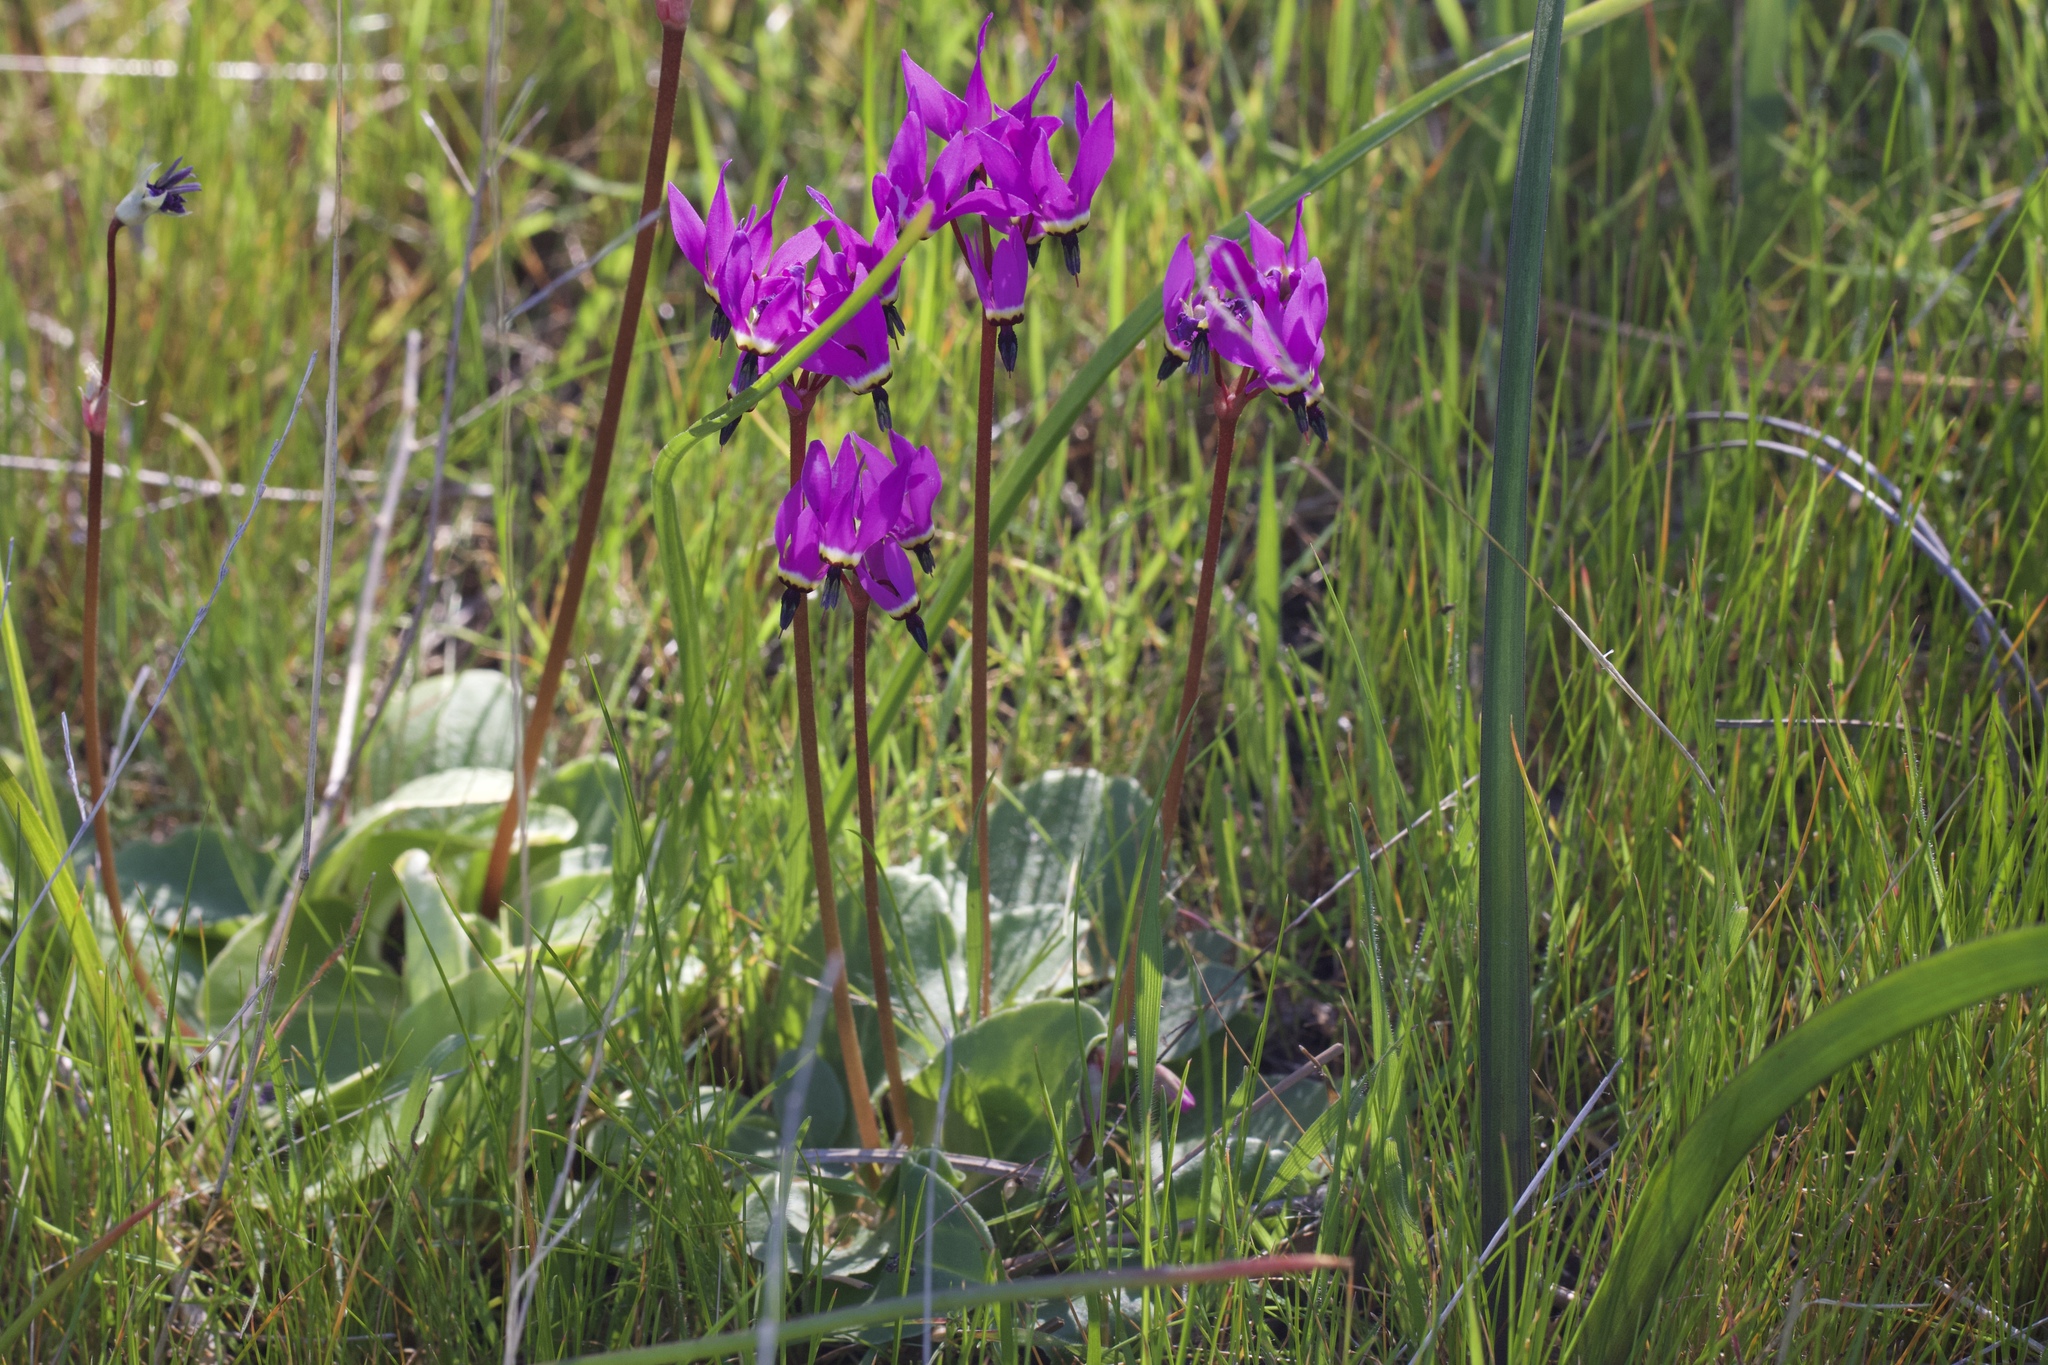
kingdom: Plantae
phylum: Tracheophyta
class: Magnoliopsida
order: Ericales
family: Primulaceae
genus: Dodecatheon
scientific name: Dodecatheon hendersonii
